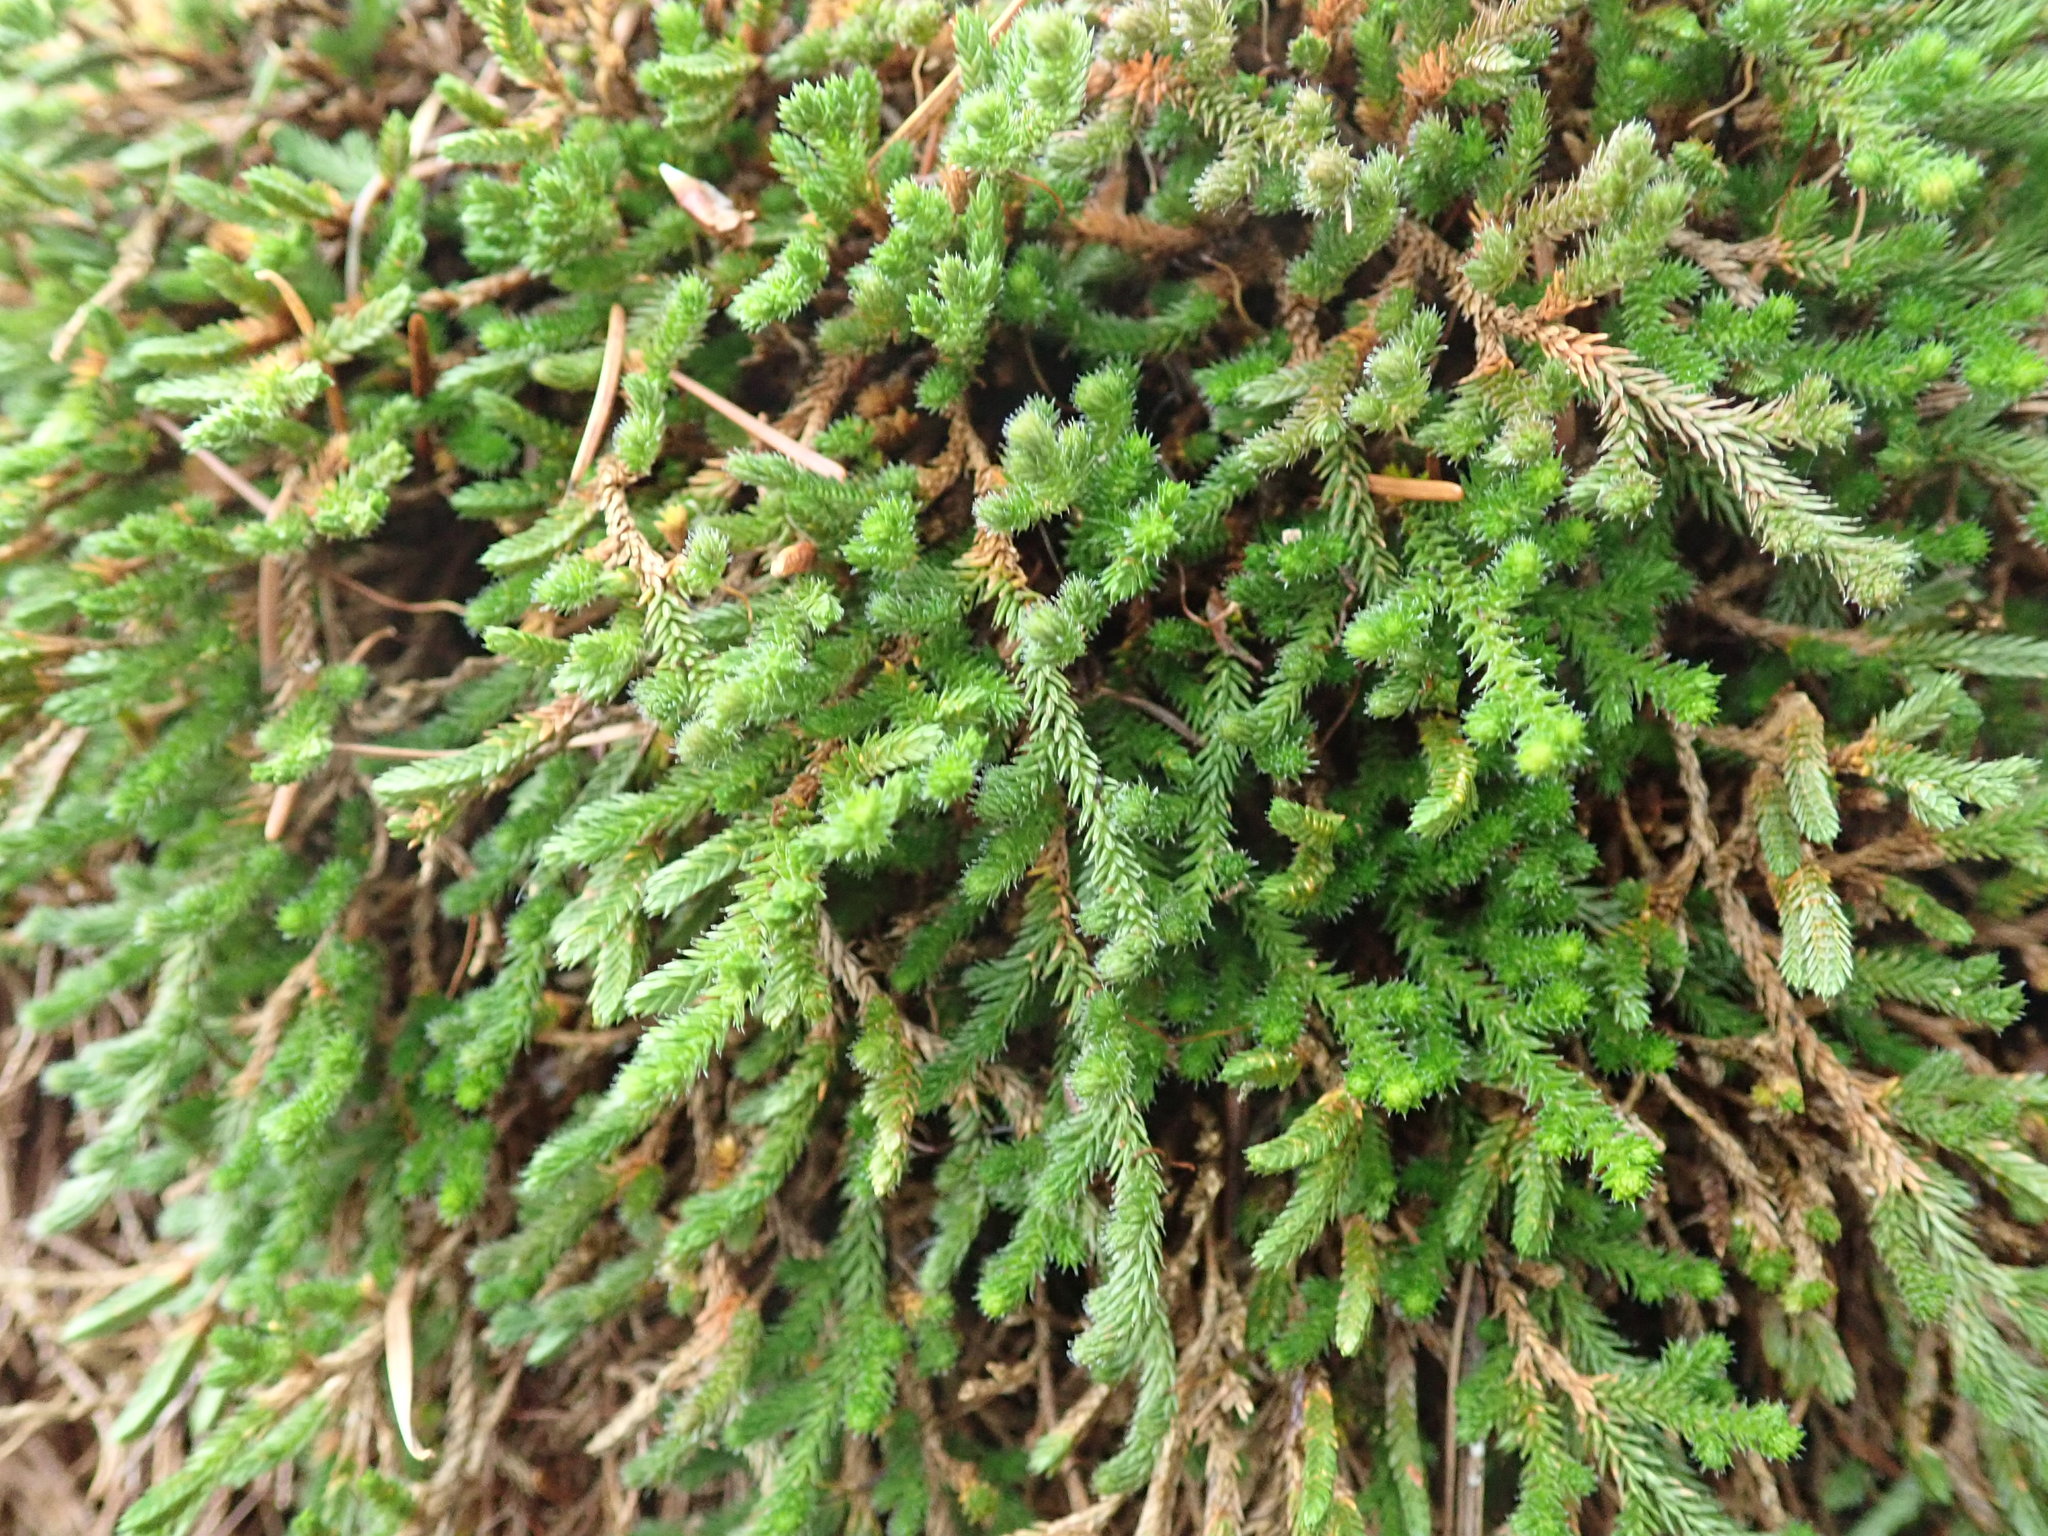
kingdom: Plantae
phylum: Tracheophyta
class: Lycopodiopsida
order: Selaginellales
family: Selaginellaceae
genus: Selaginella
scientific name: Selaginella wallacei
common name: Wallace's selaginella
